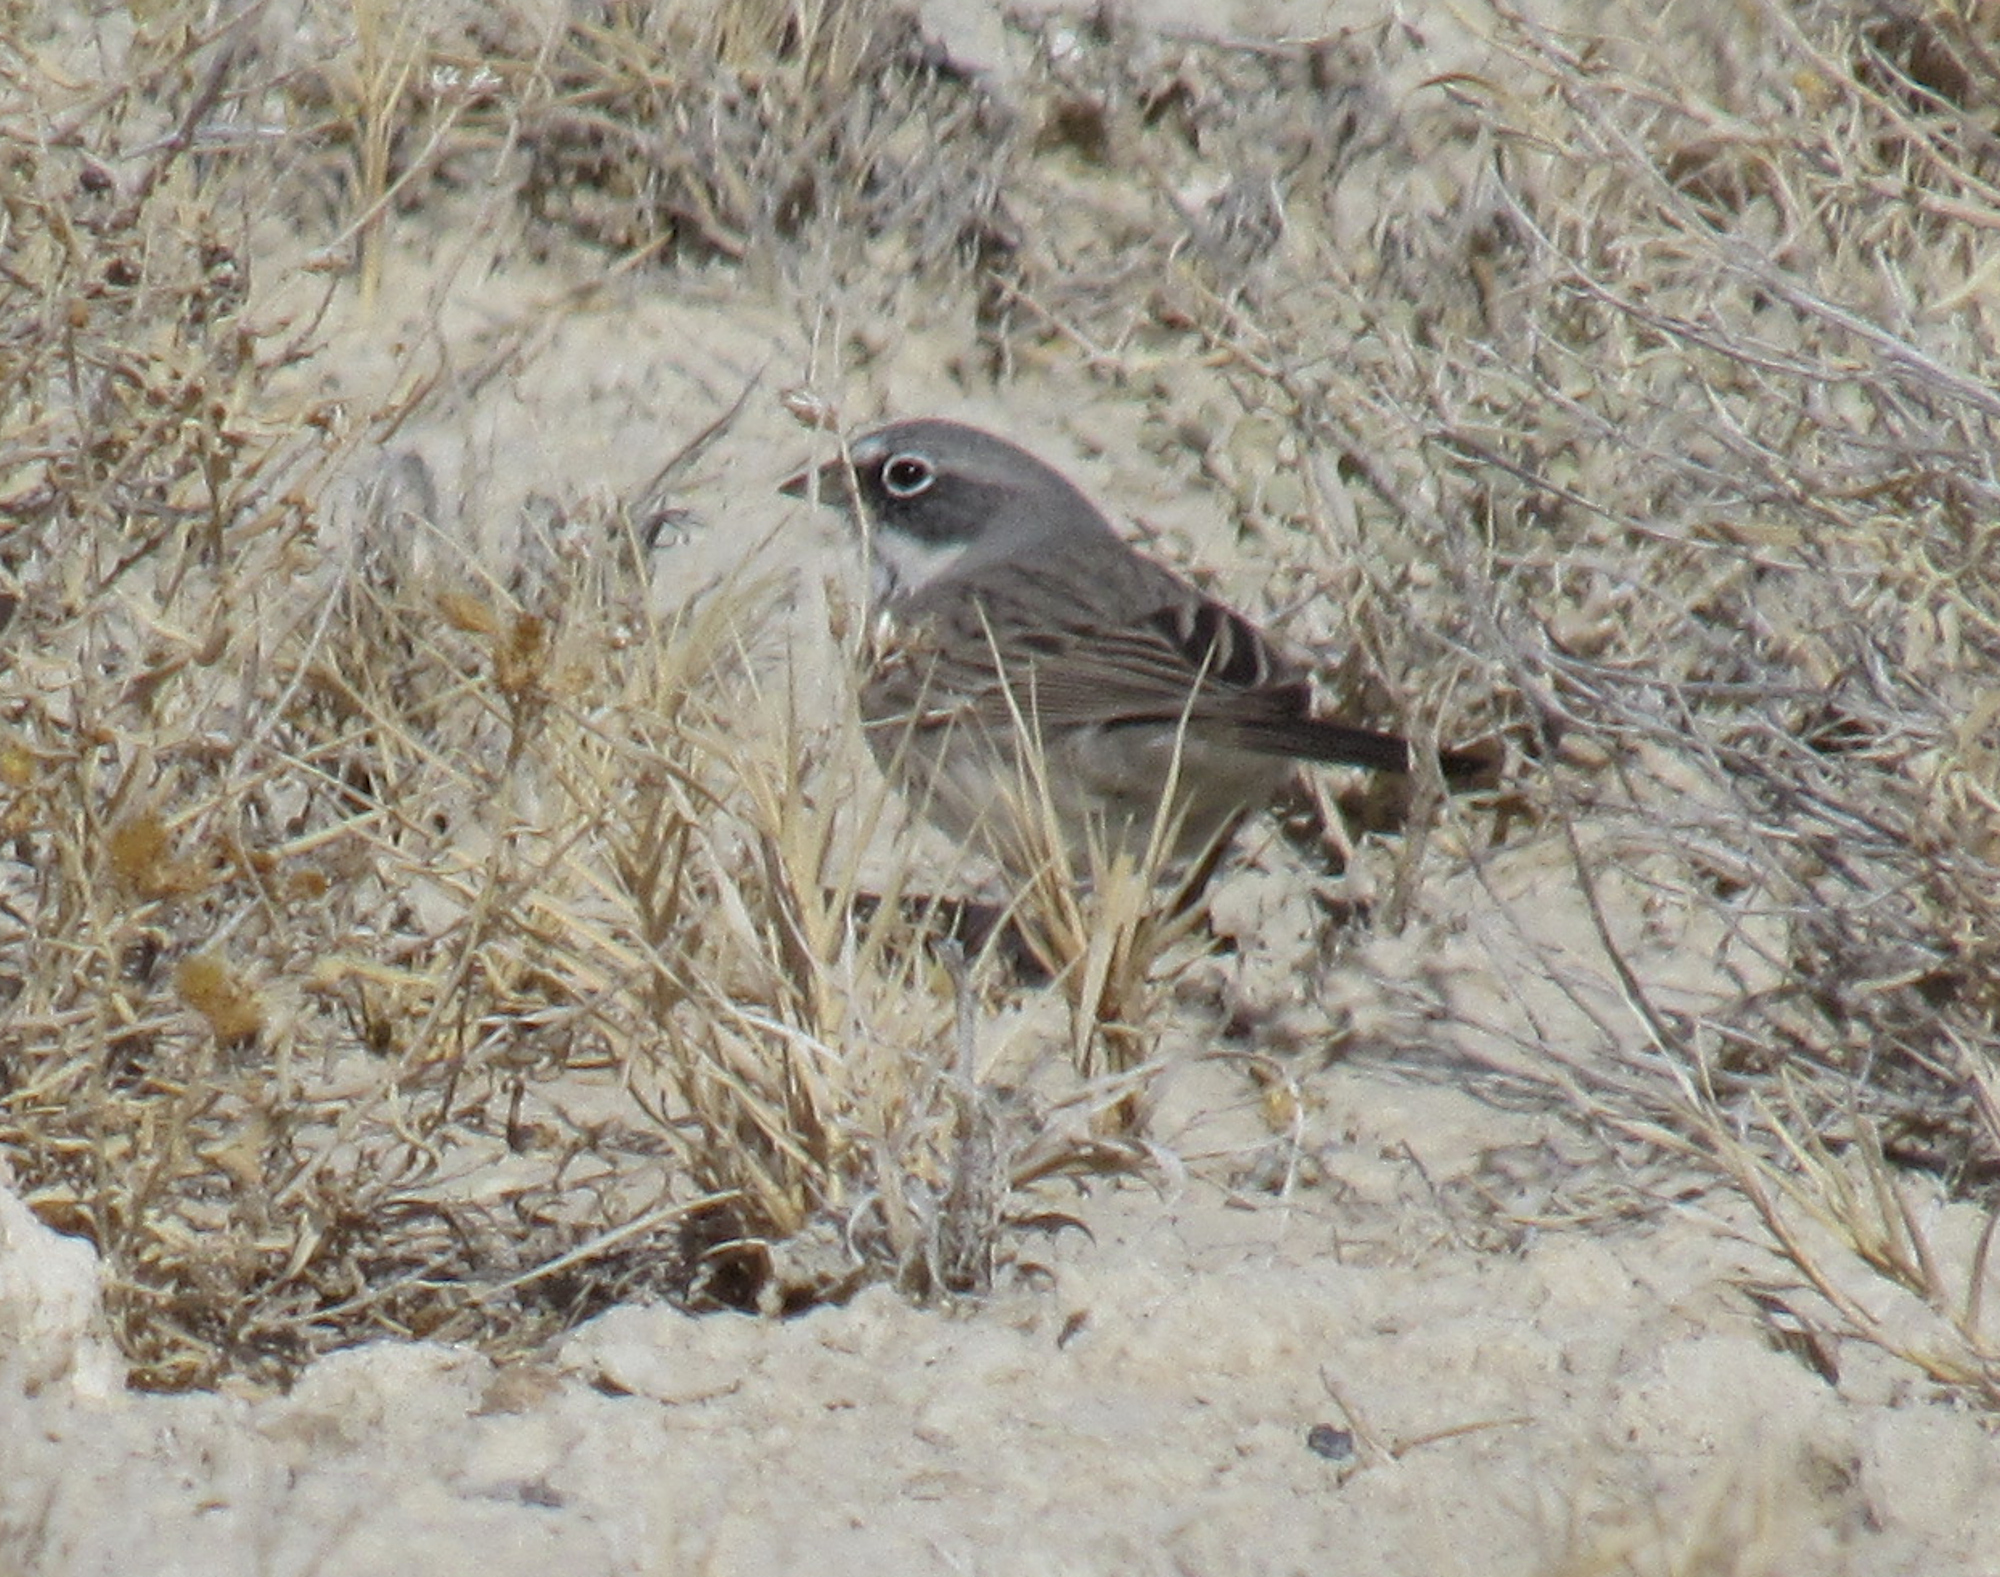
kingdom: Animalia
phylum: Chordata
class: Aves
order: Passeriformes
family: Passerellidae
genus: Artemisiospiza
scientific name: Artemisiospiza nevadensis
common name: Sagebrush sparrow
